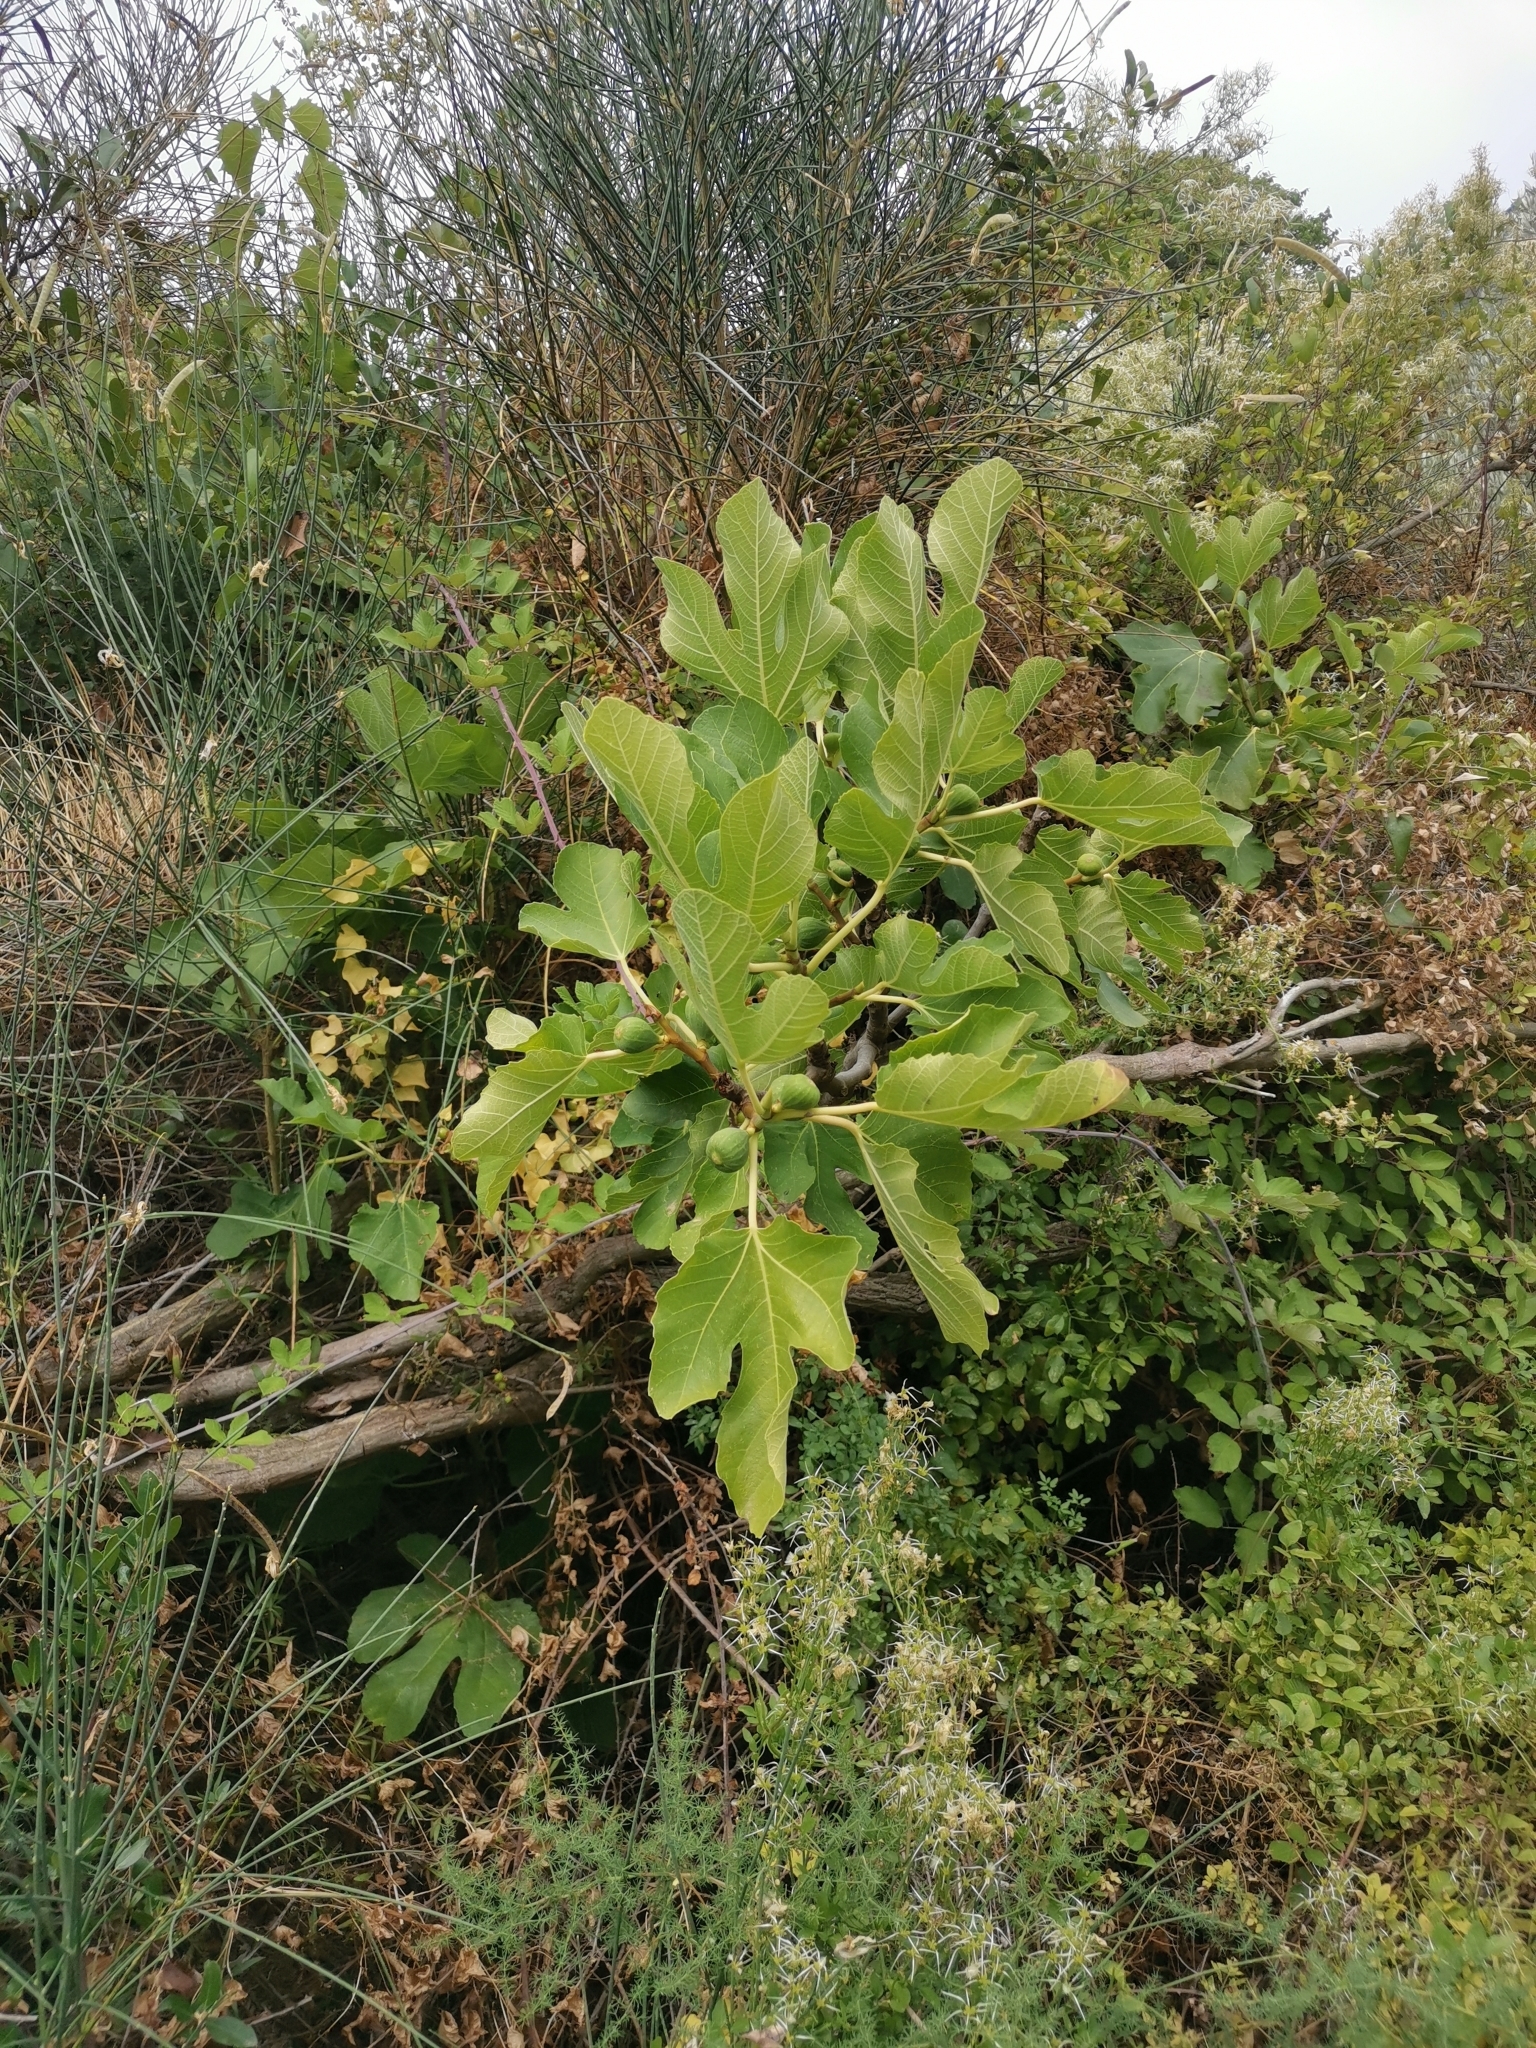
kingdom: Plantae
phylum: Tracheophyta
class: Magnoliopsida
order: Rosales
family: Moraceae
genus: Ficus
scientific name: Ficus carica
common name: Fig
